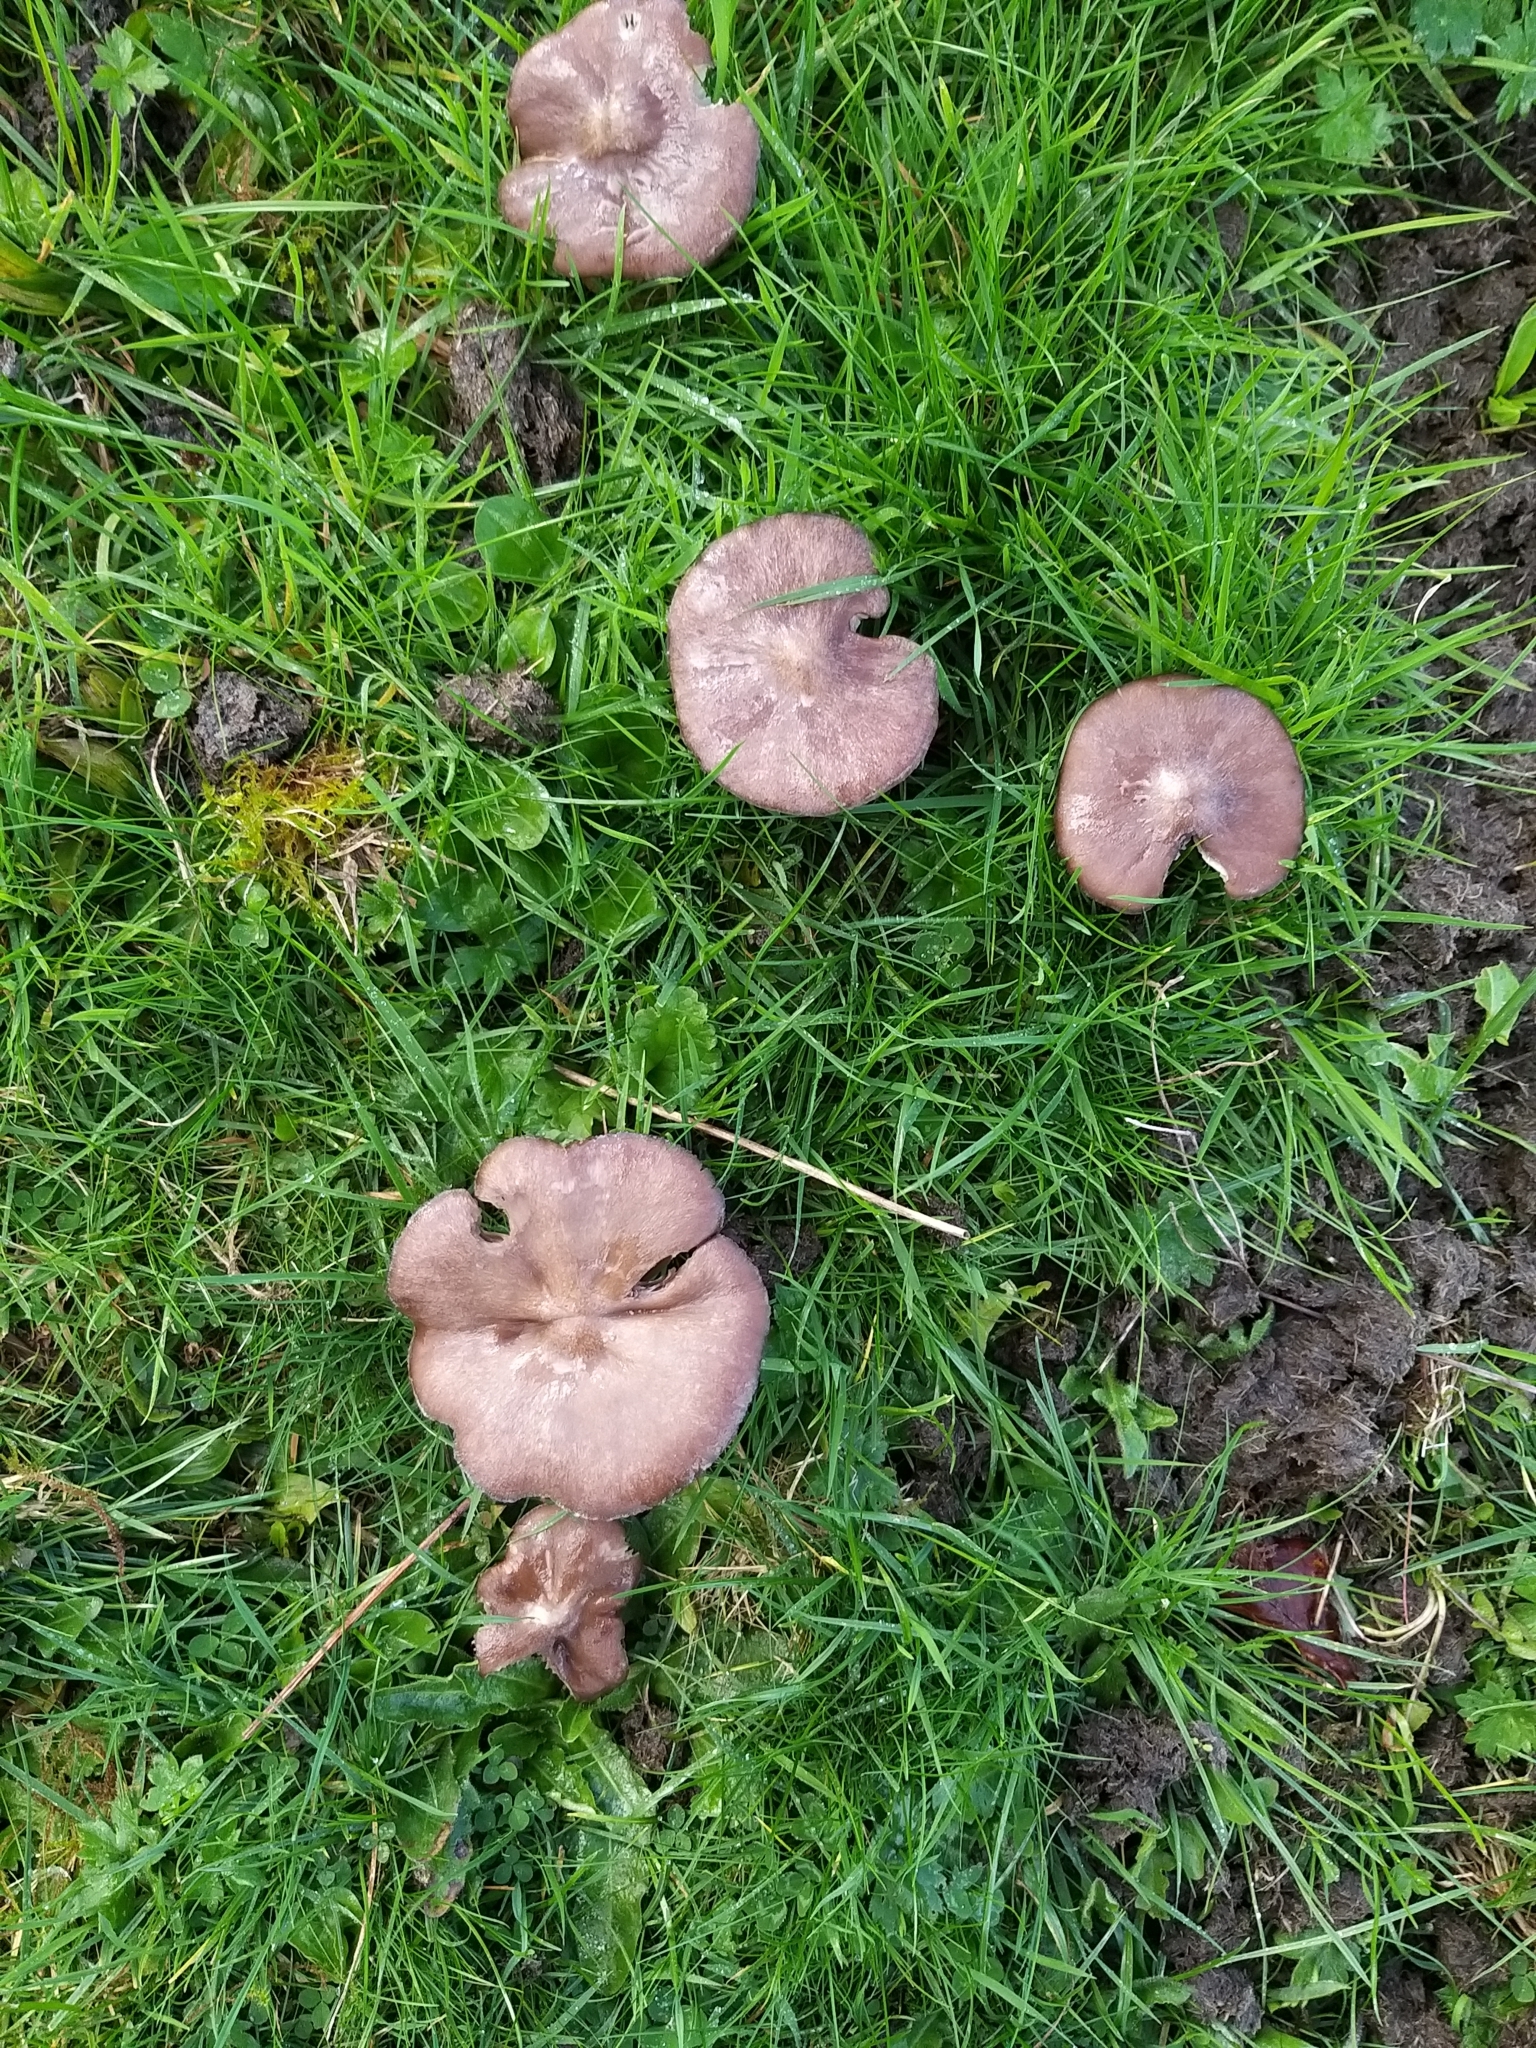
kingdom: Fungi
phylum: Basidiomycota
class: Agaricomycetes
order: Agaricales
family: Entolomataceae
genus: Entoloma
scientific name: Entoloma porphyrophaeum
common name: Lilac pinkgill
